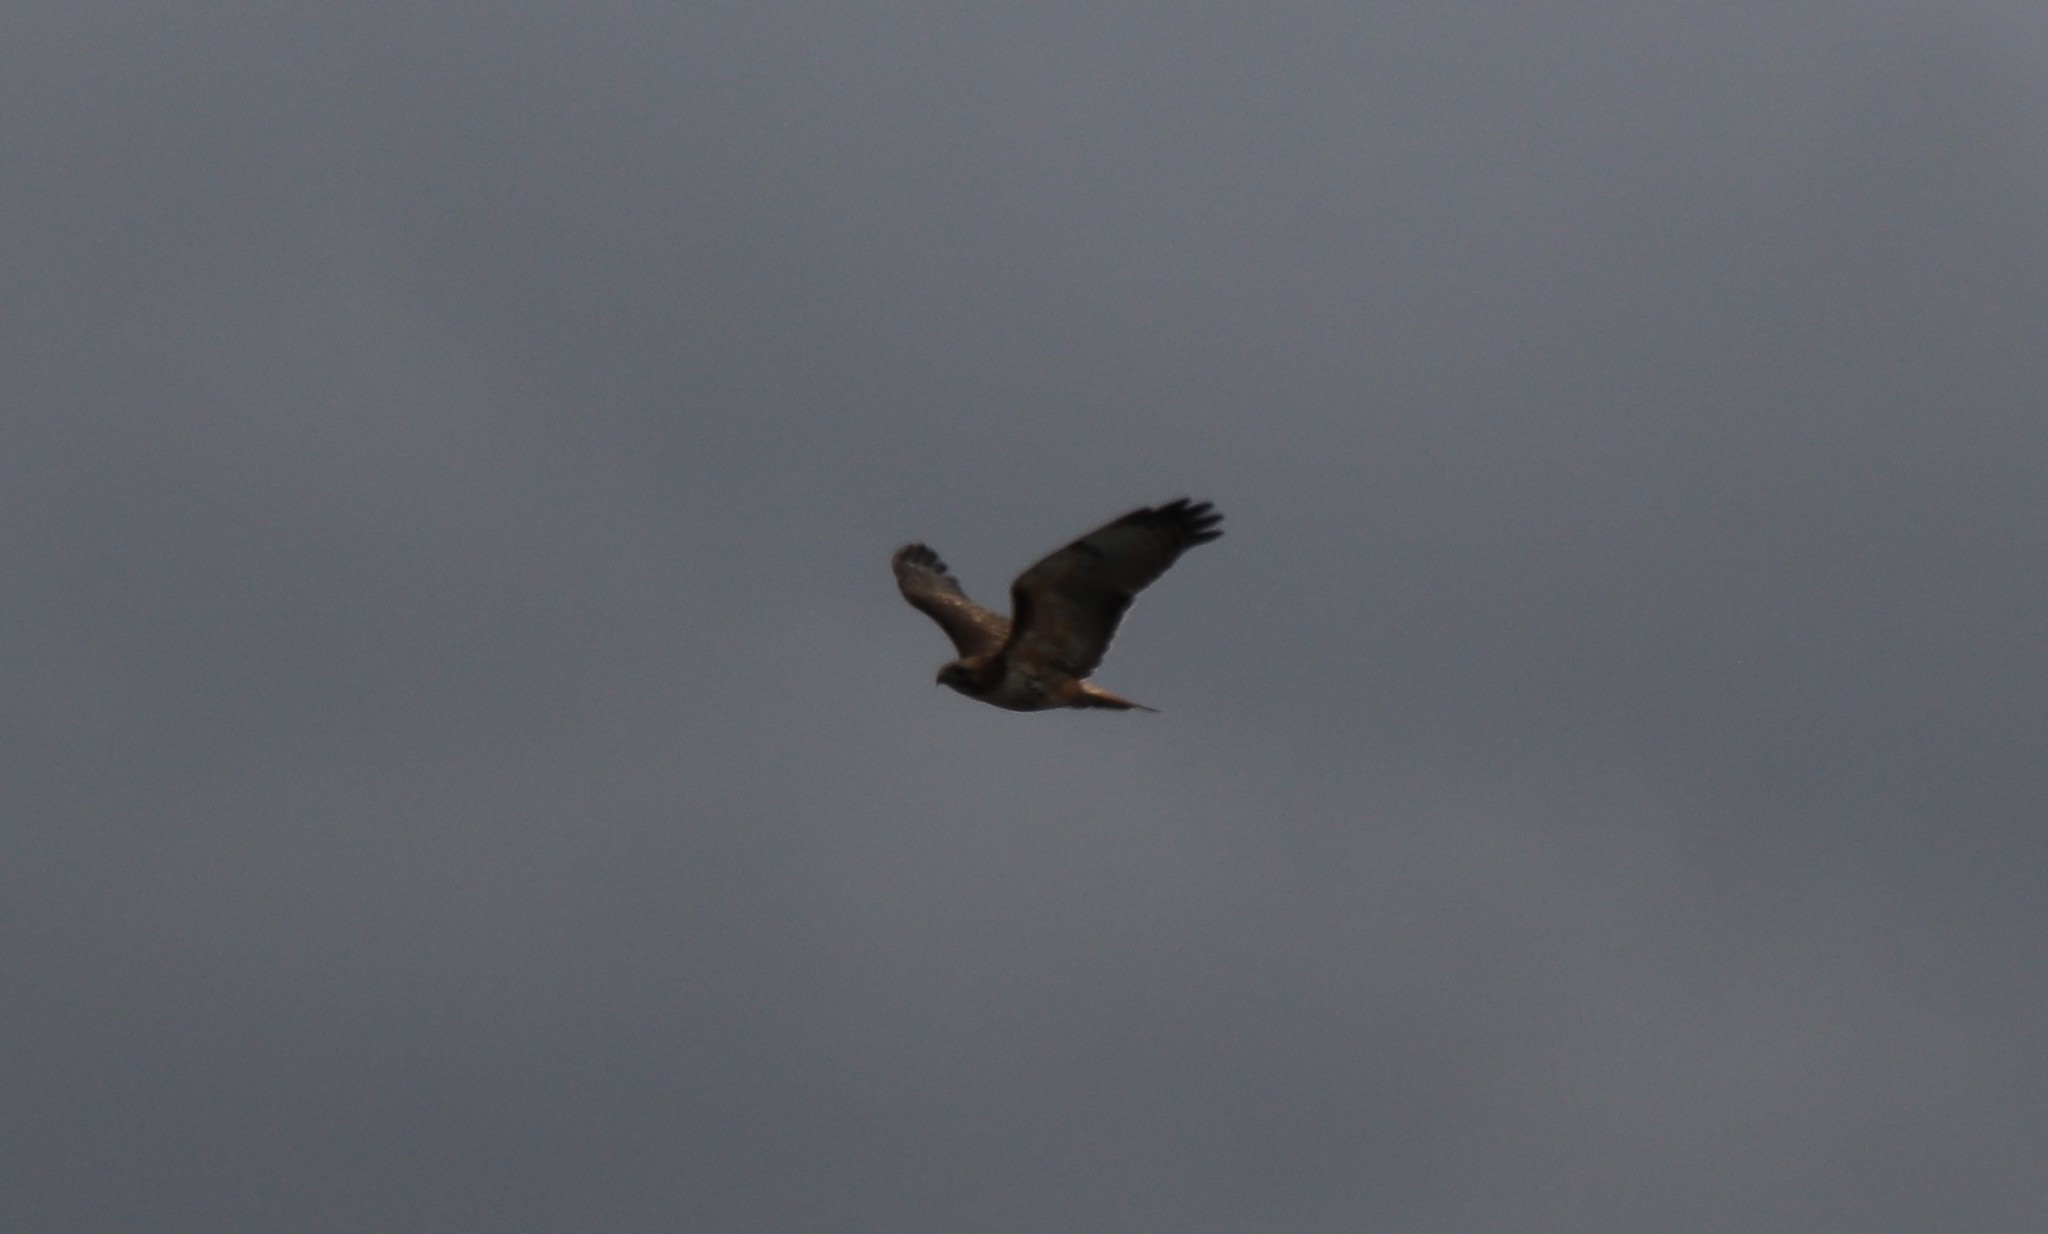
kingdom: Animalia
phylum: Chordata
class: Aves
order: Accipitriformes
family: Accipitridae
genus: Buteo
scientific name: Buteo jamaicensis
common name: Red-tailed hawk
